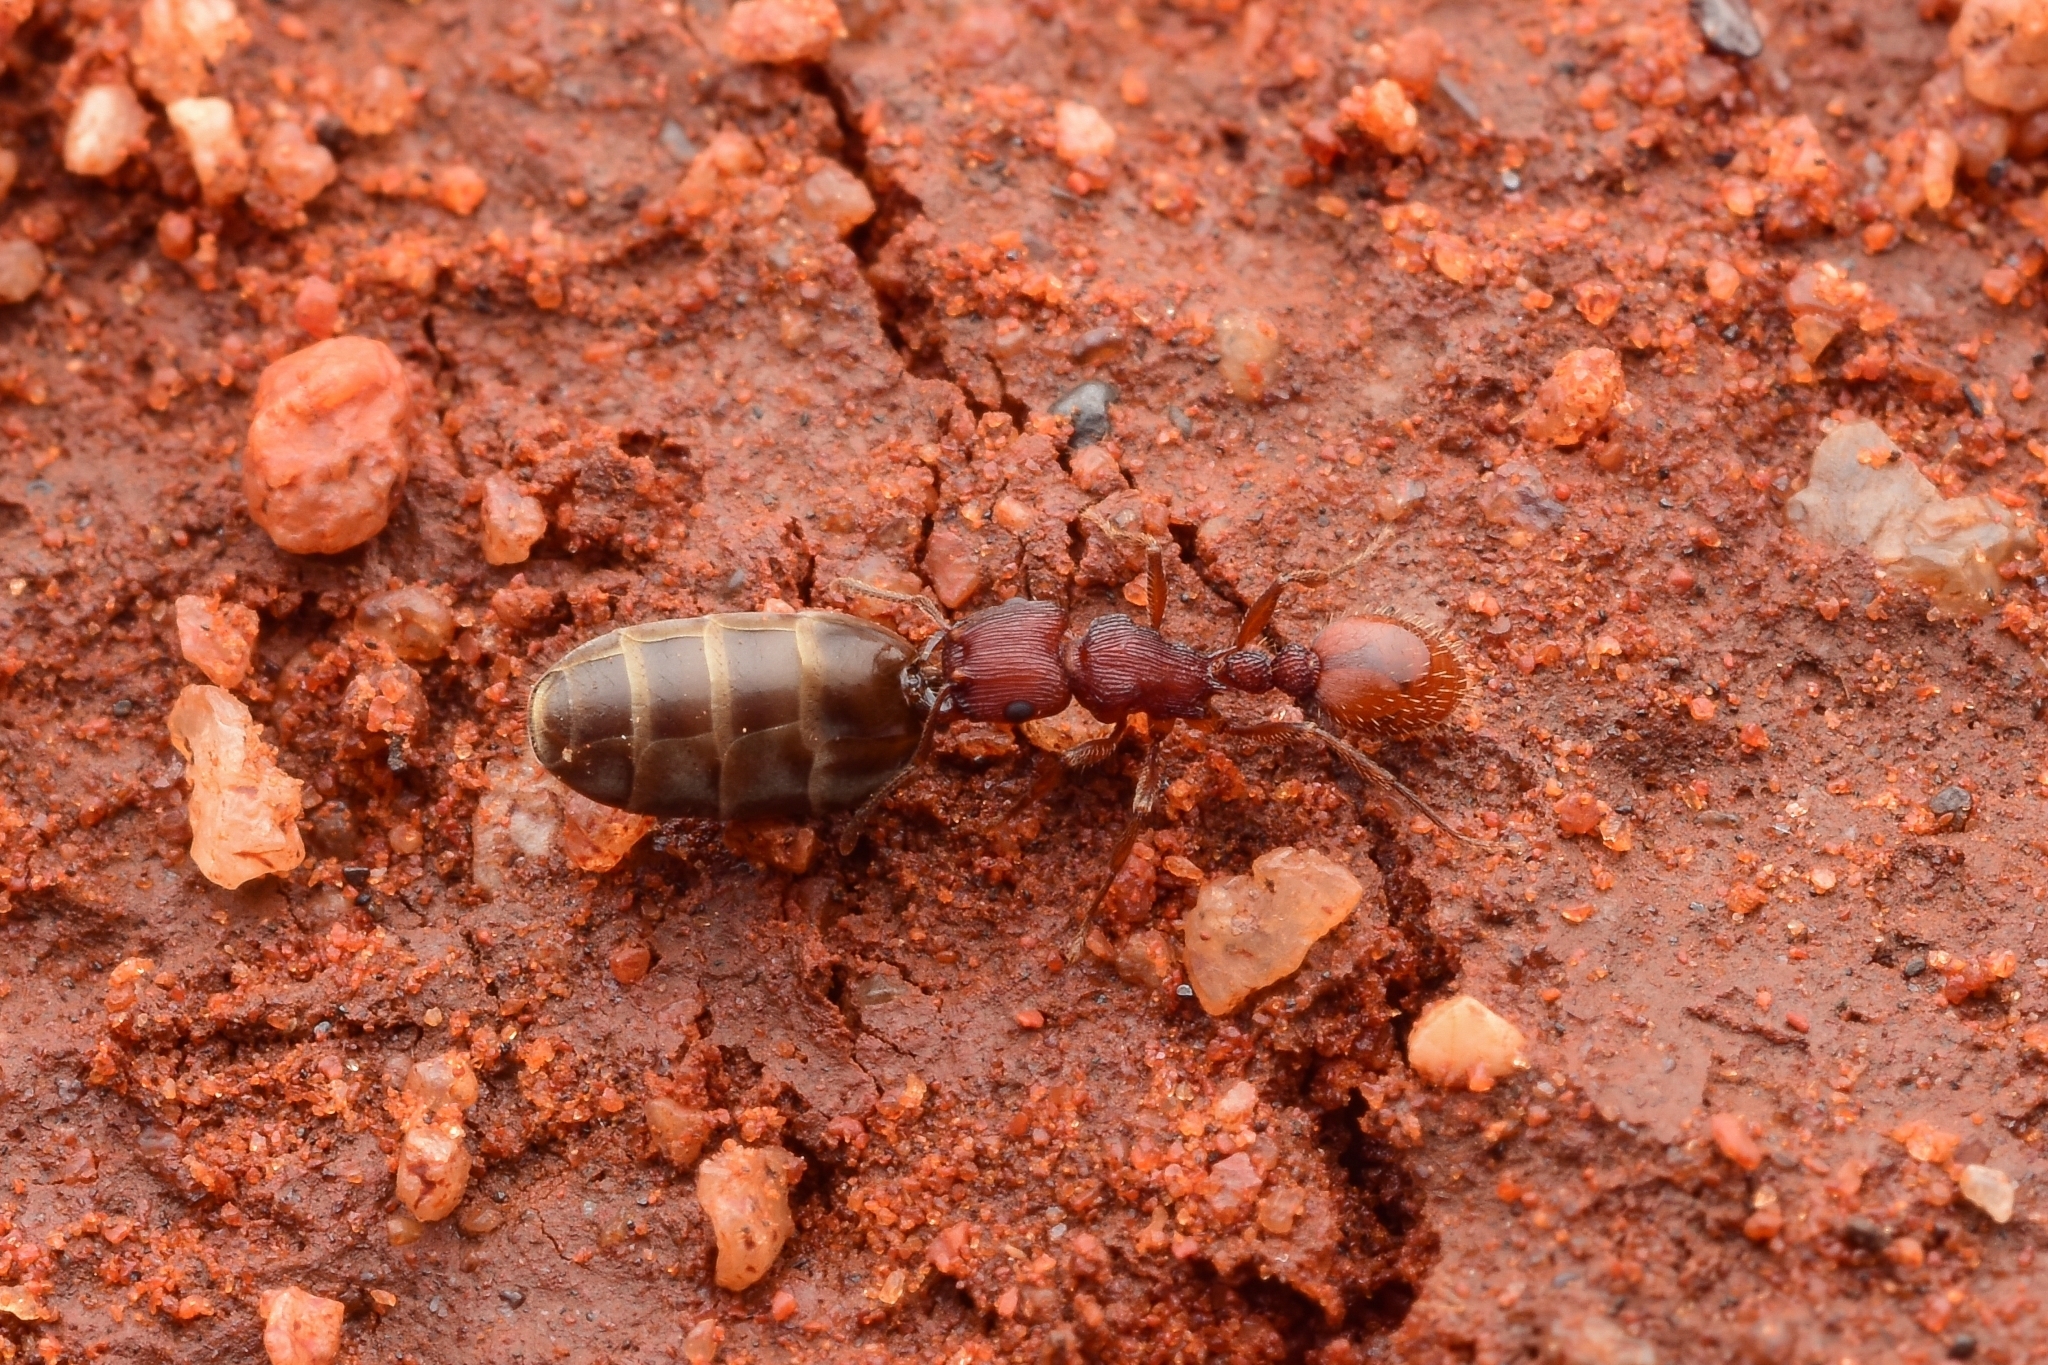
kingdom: Animalia
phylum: Arthropoda
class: Insecta
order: Hymenoptera
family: Formicidae
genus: Tetramorium
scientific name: Tetramorium sjostedti
